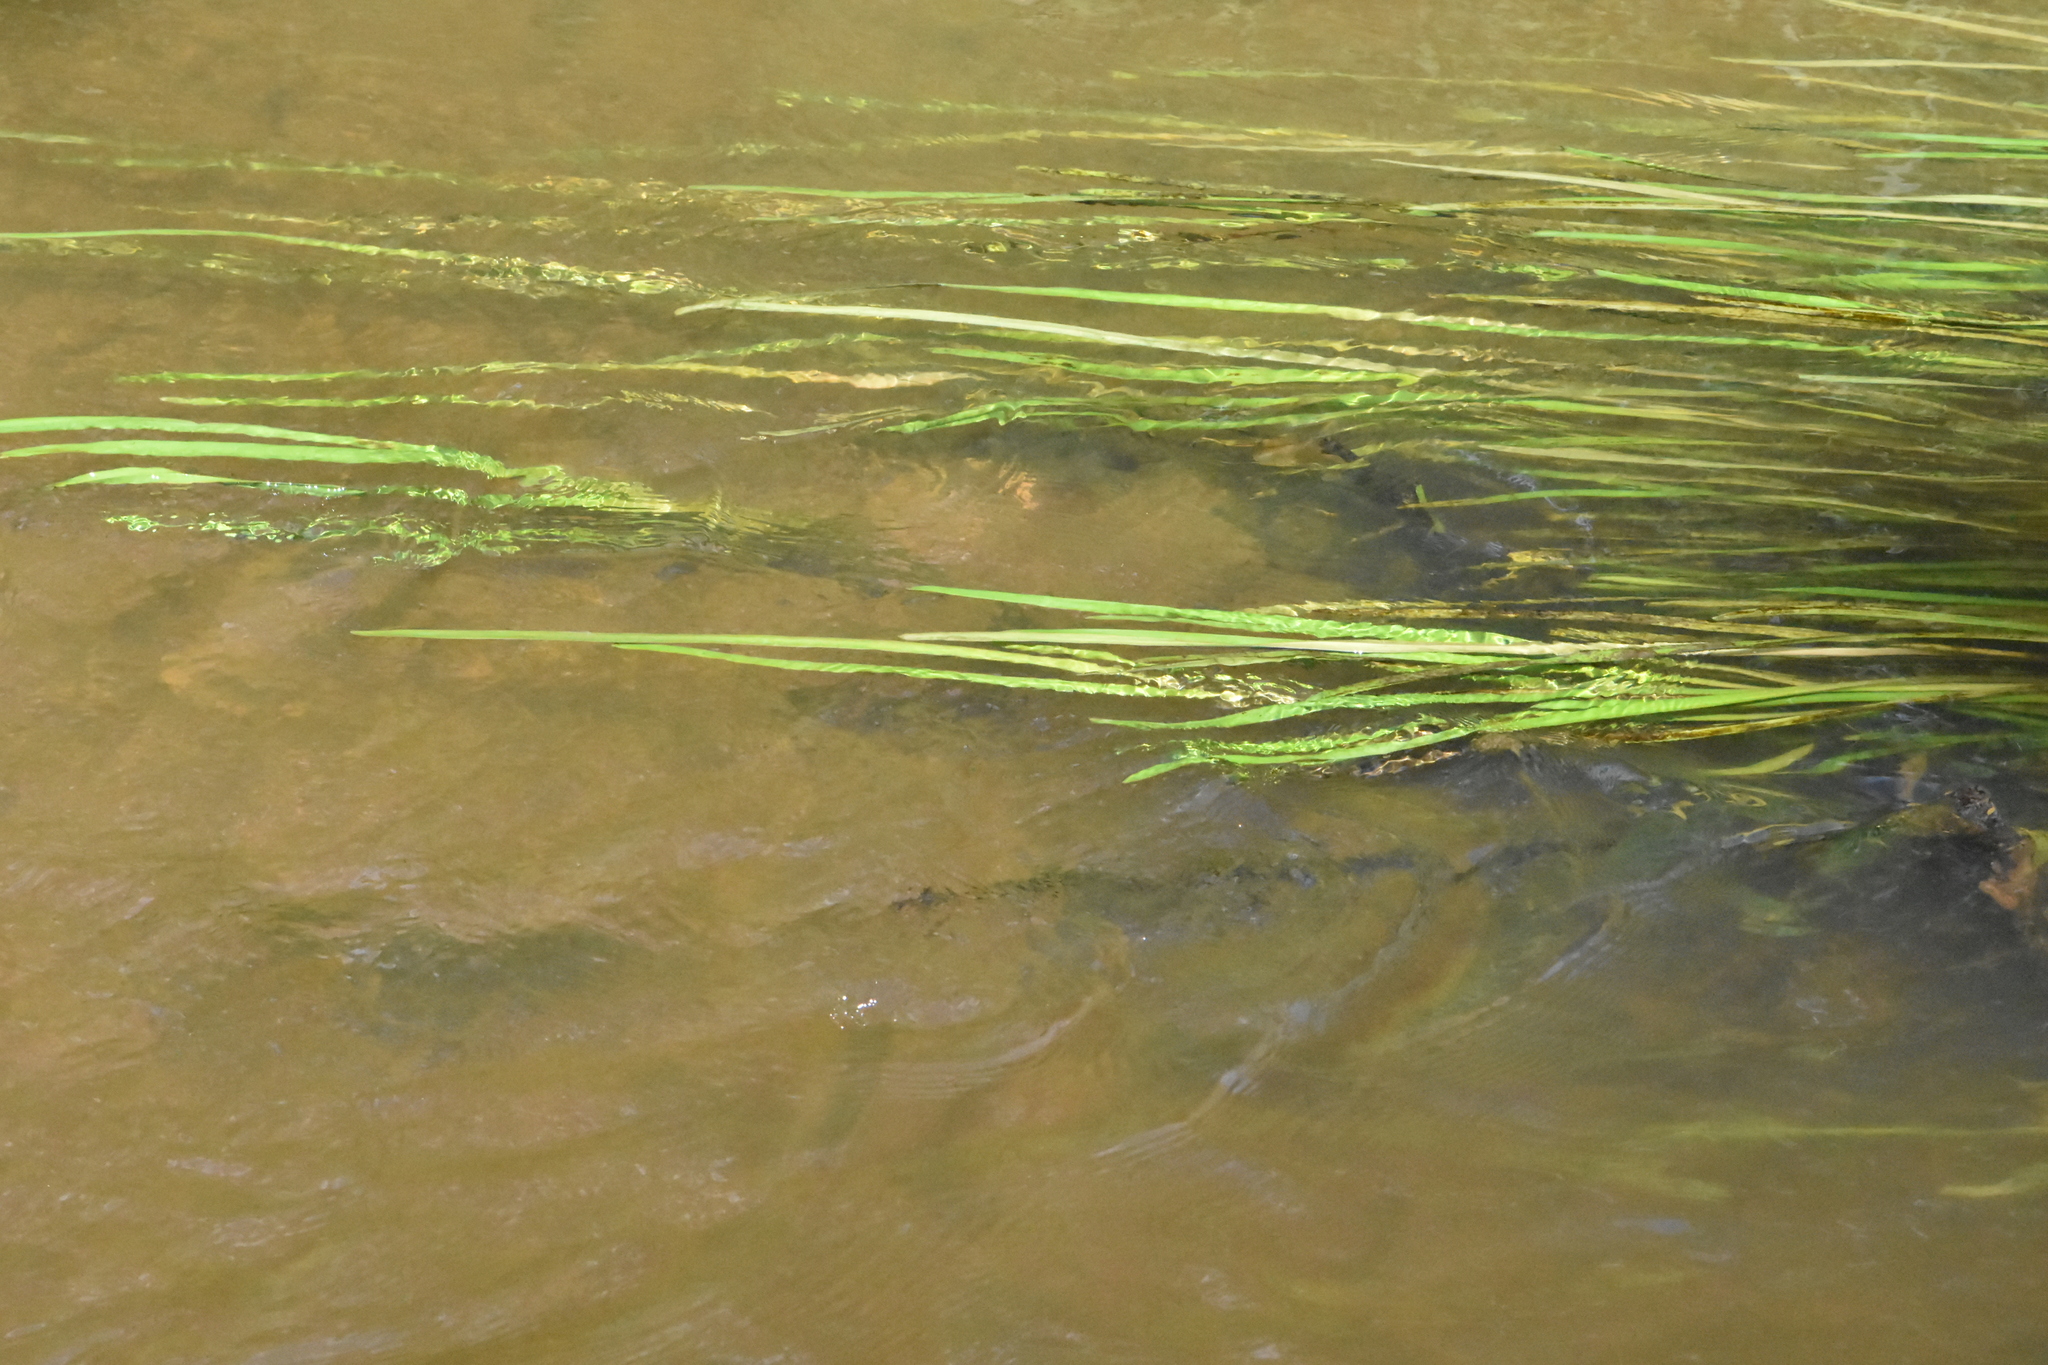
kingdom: Plantae
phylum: Tracheophyta
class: Liliopsida
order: Poales
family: Typhaceae
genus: Sparganium
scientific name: Sparganium emersum
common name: Unbranched bur-reed
